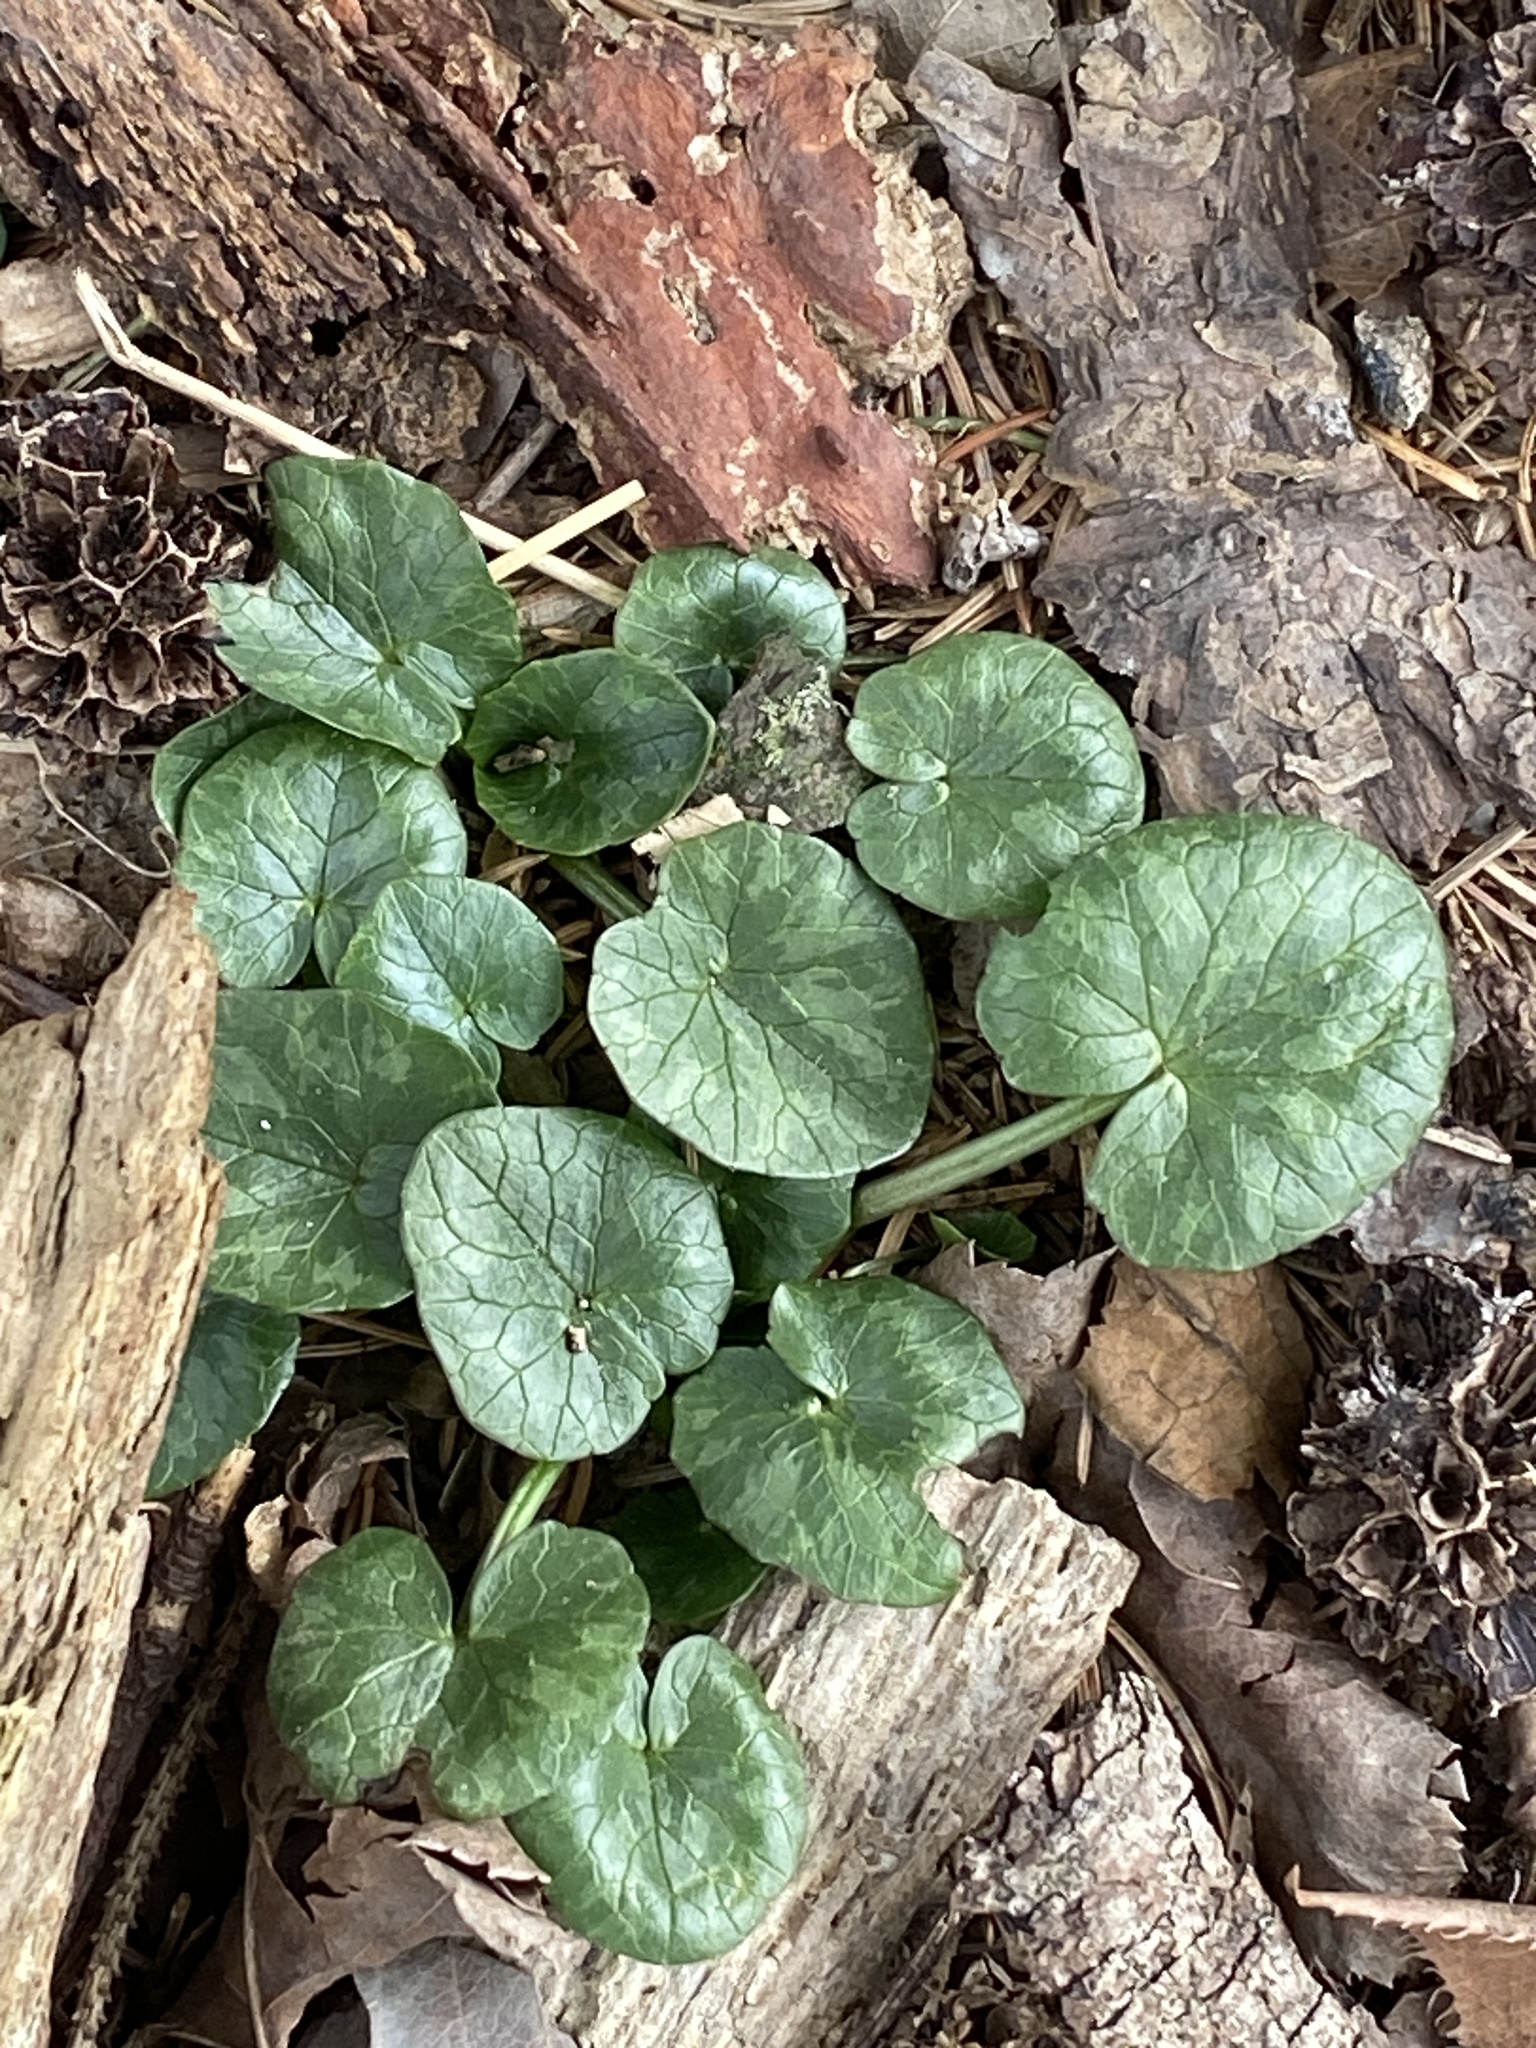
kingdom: Plantae
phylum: Tracheophyta
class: Magnoliopsida
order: Ranunculales
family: Ranunculaceae
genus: Ficaria
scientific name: Ficaria verna
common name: Lesser celandine
